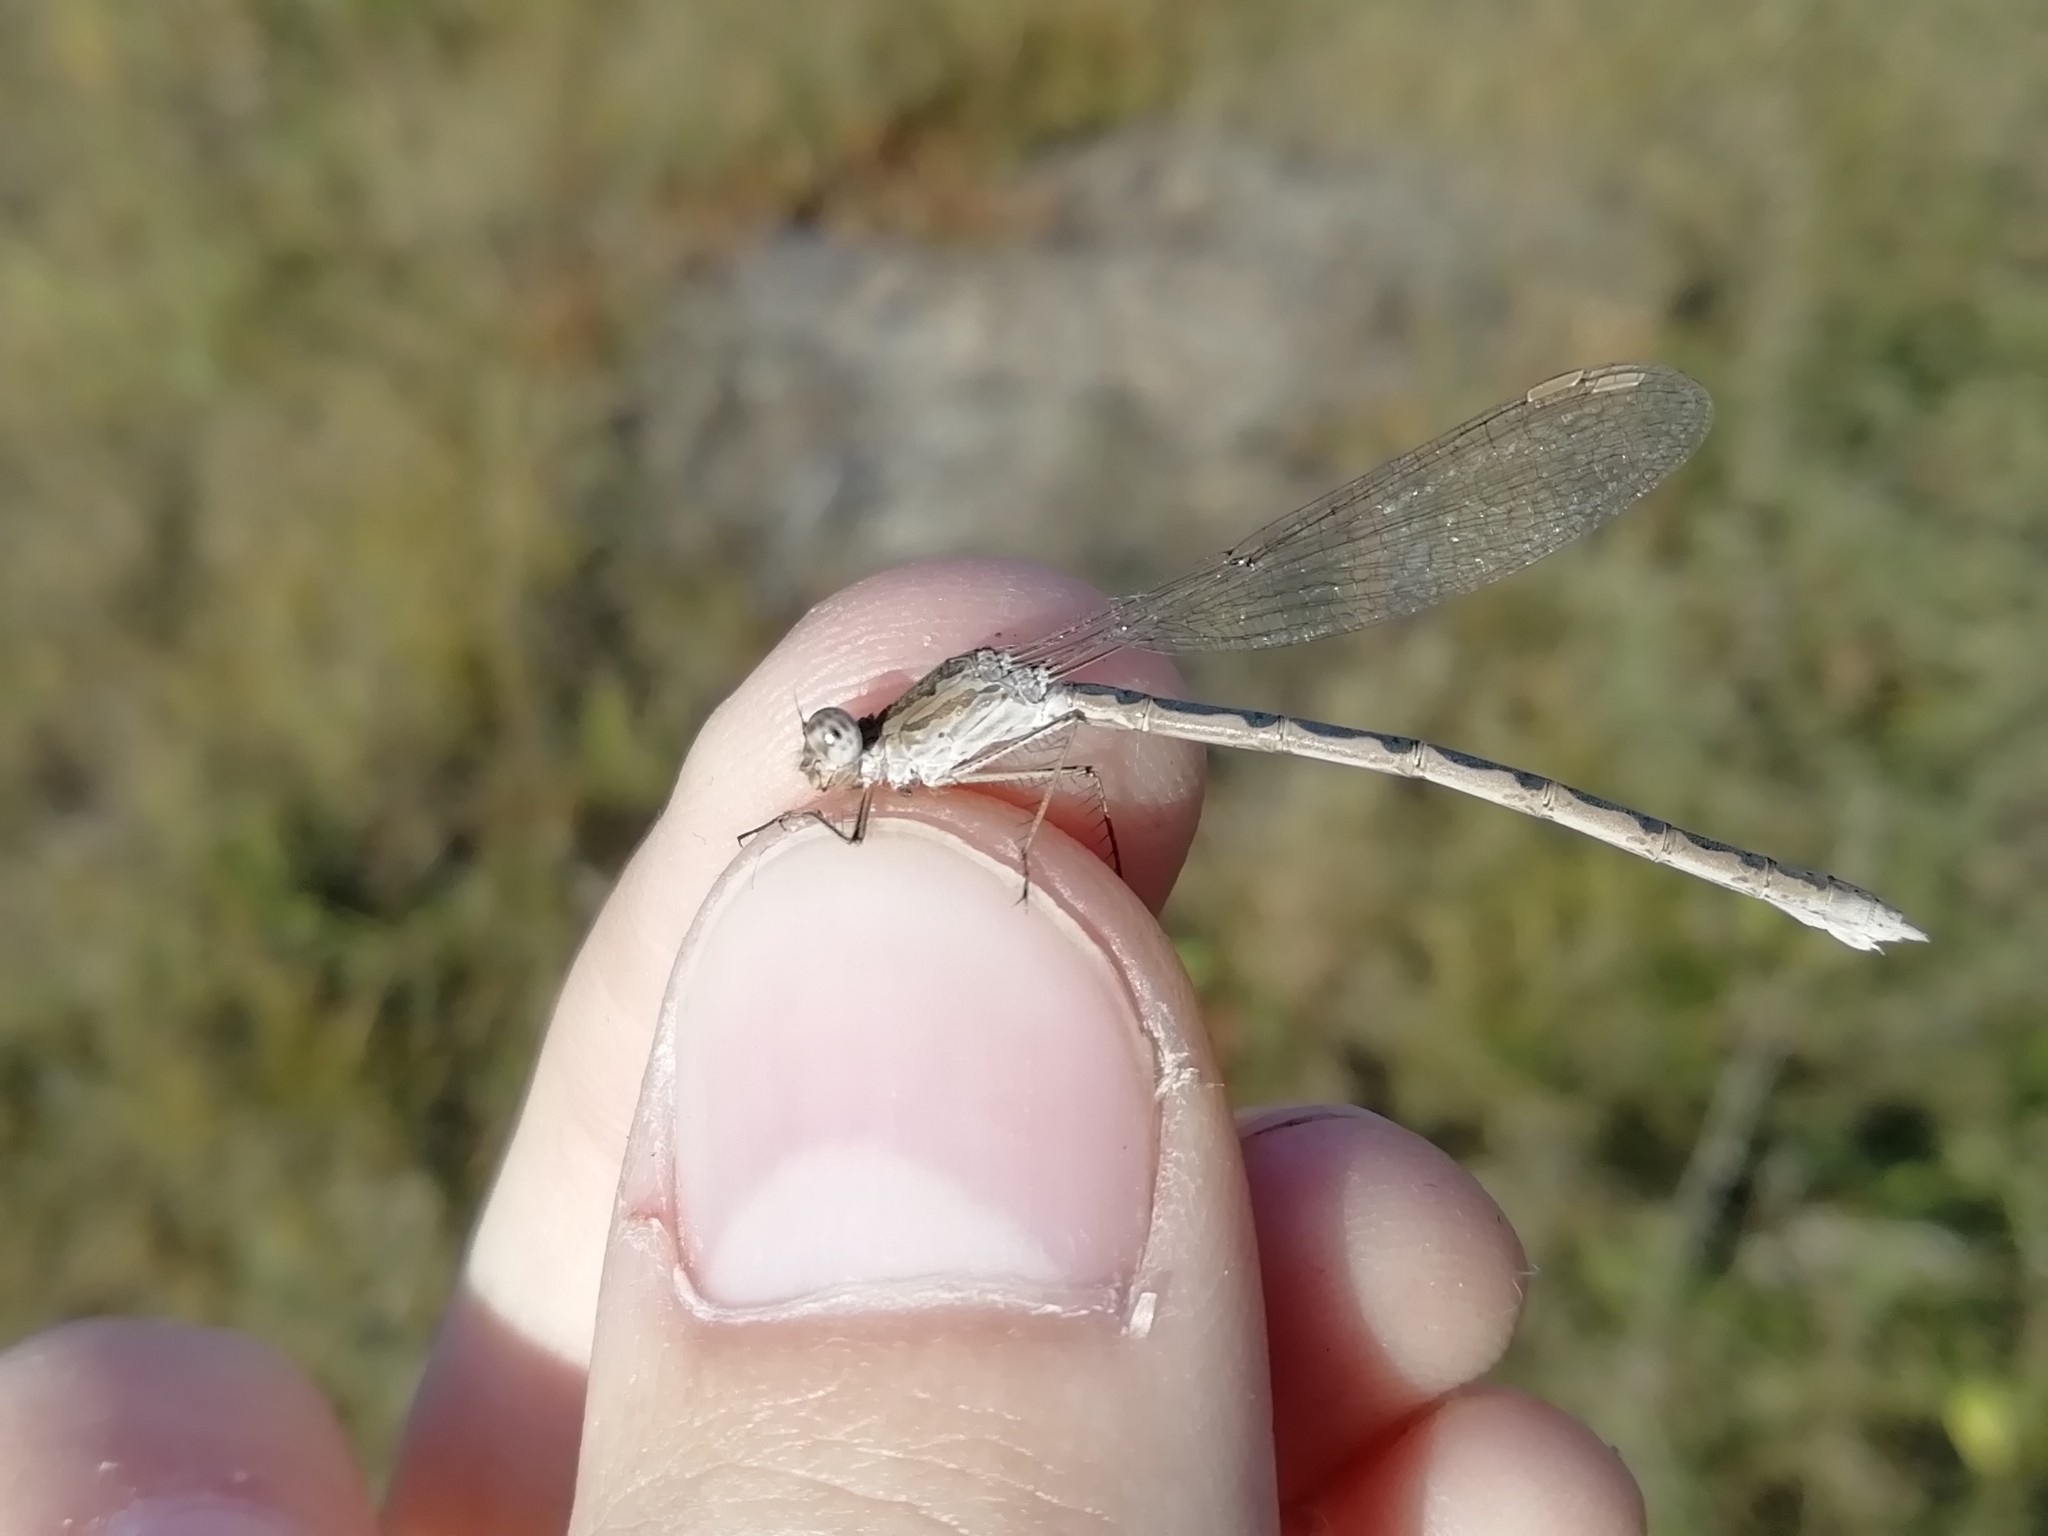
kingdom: Animalia
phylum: Arthropoda
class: Insecta
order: Odonata
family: Lestidae
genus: Sympecma
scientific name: Sympecma paedisca
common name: Siberian winter damsel
